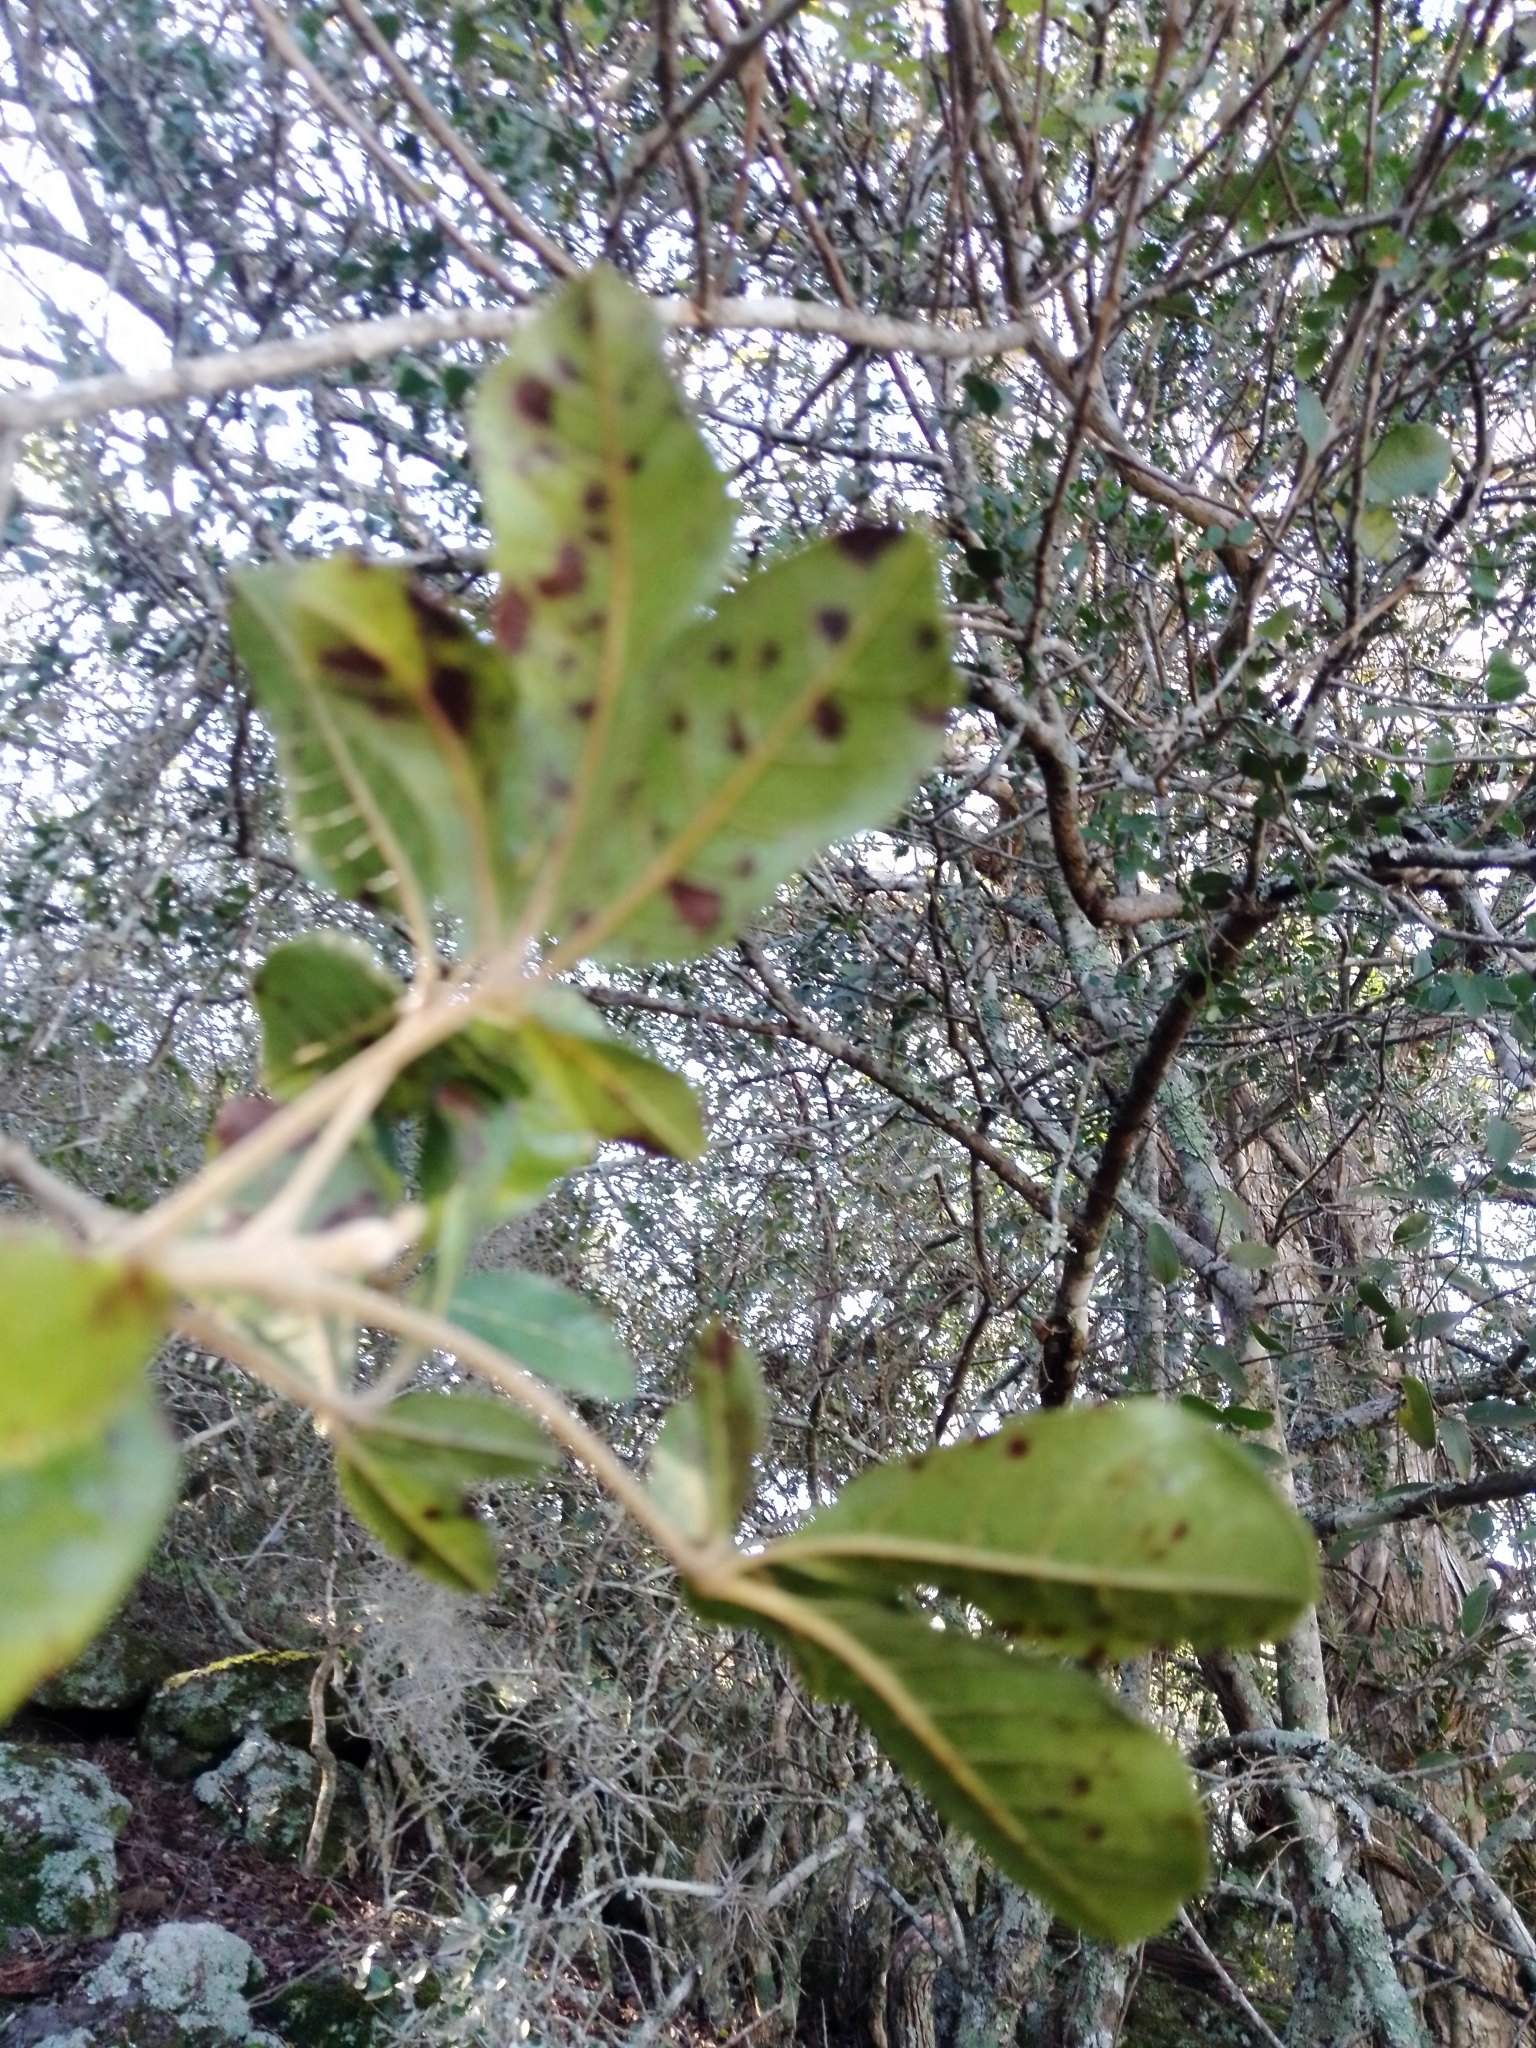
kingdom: Plantae
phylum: Tracheophyta
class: Magnoliopsida
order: Lamiales
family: Lamiaceae
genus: Vitex
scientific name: Vitex megapotamica
